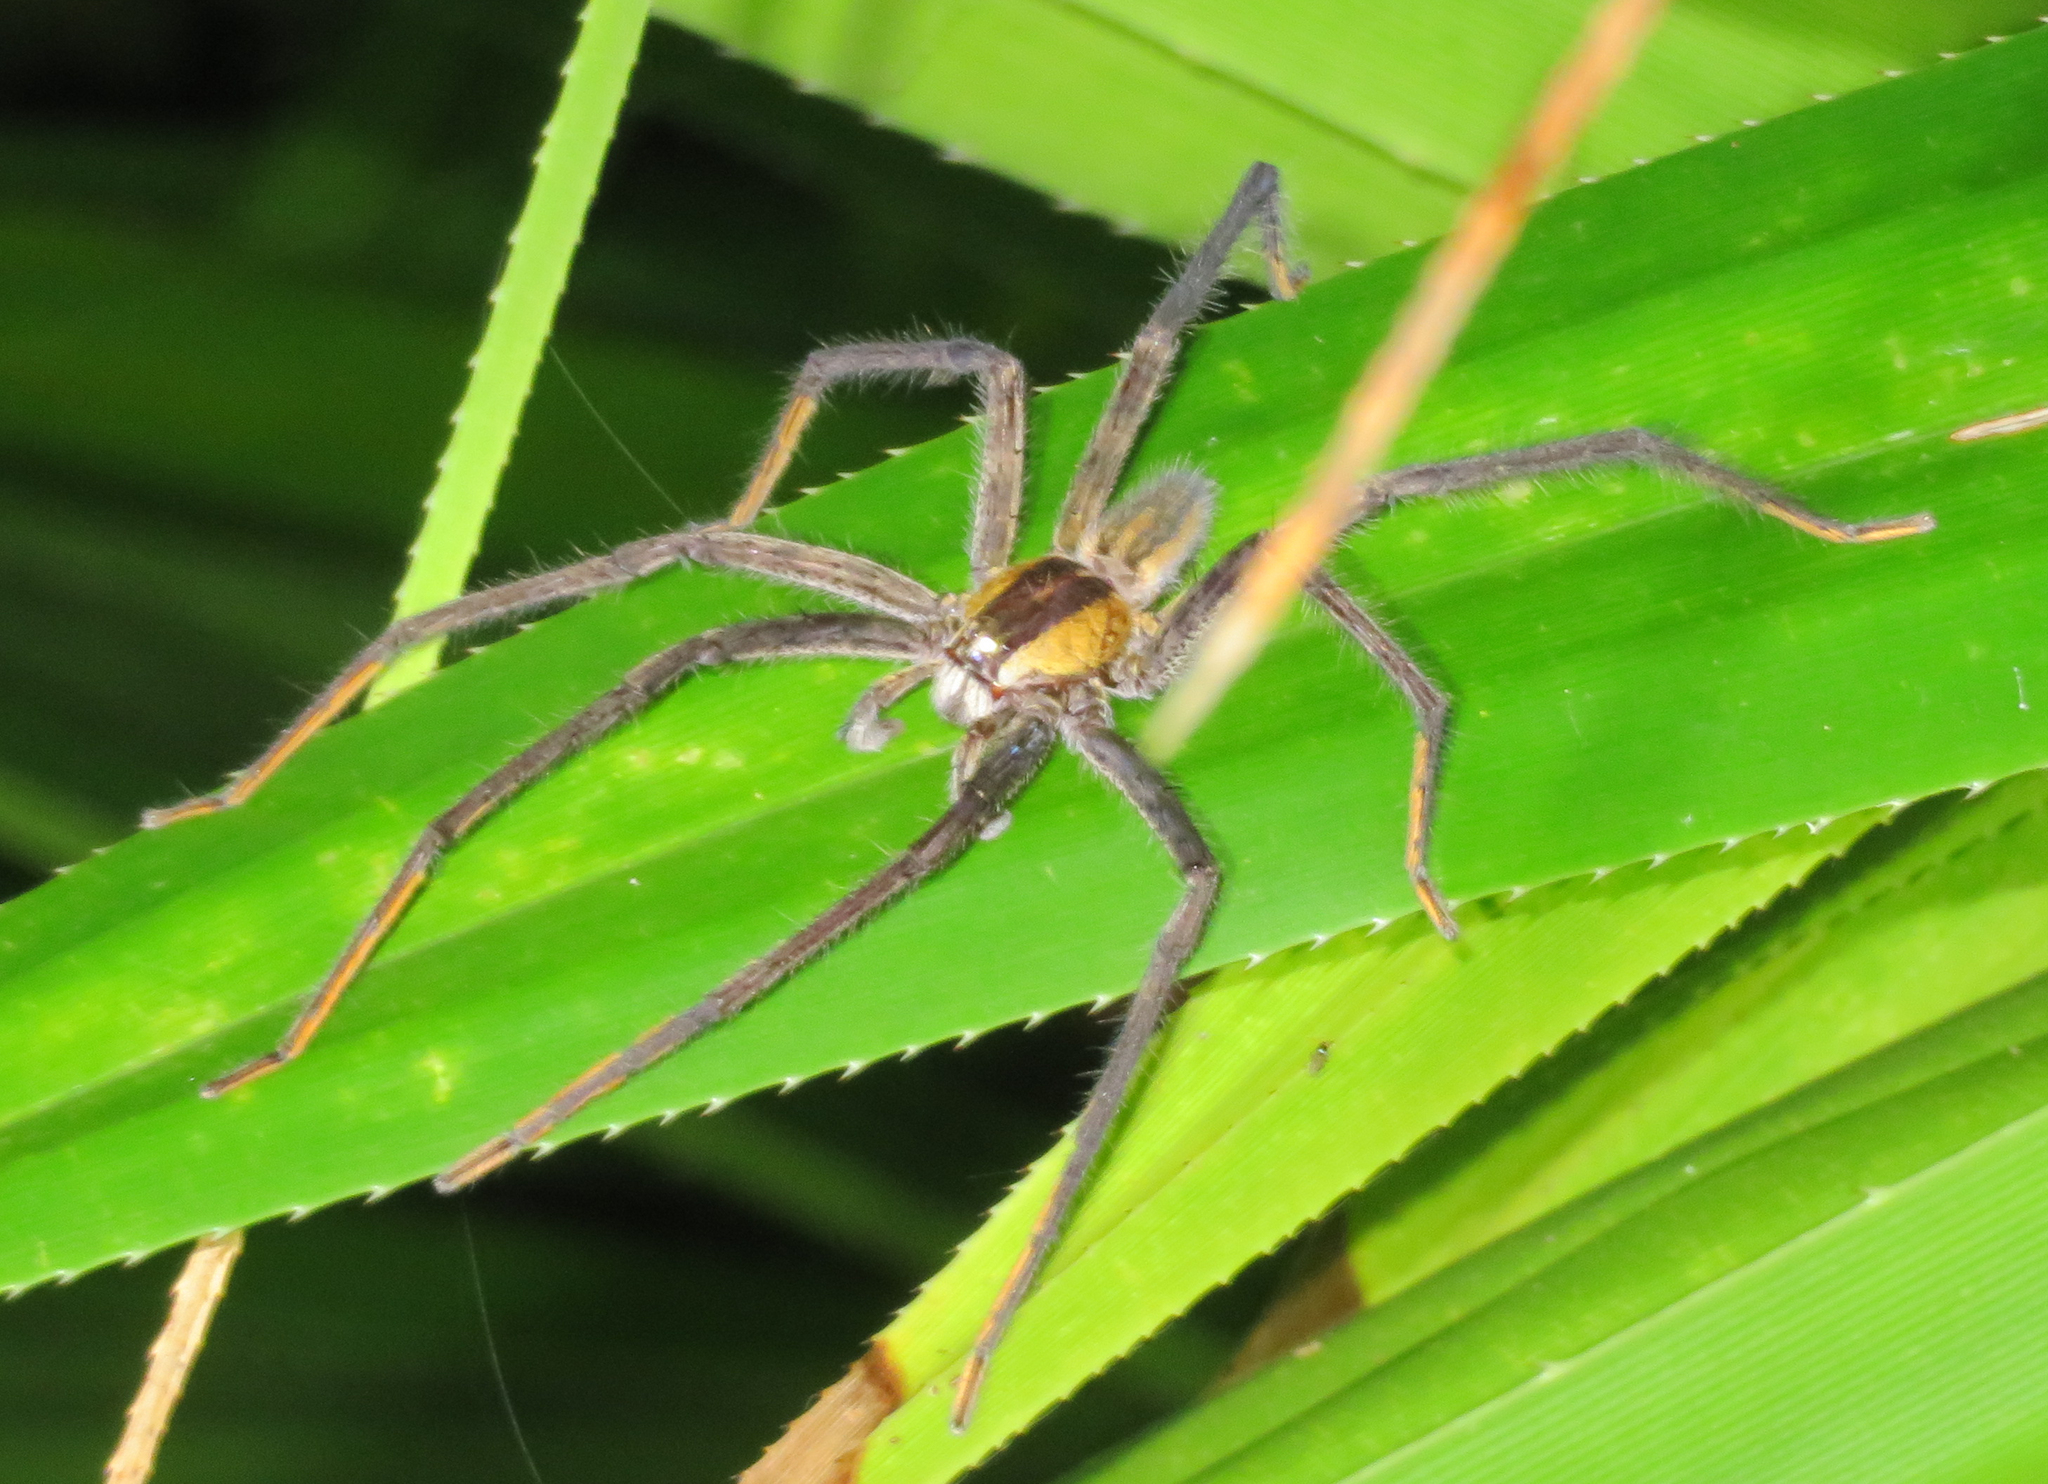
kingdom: Animalia
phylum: Arthropoda
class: Arachnida
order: Araneae
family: Trechaleidae
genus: Cupiennius
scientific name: Cupiennius getazi
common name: Wandering spiders
